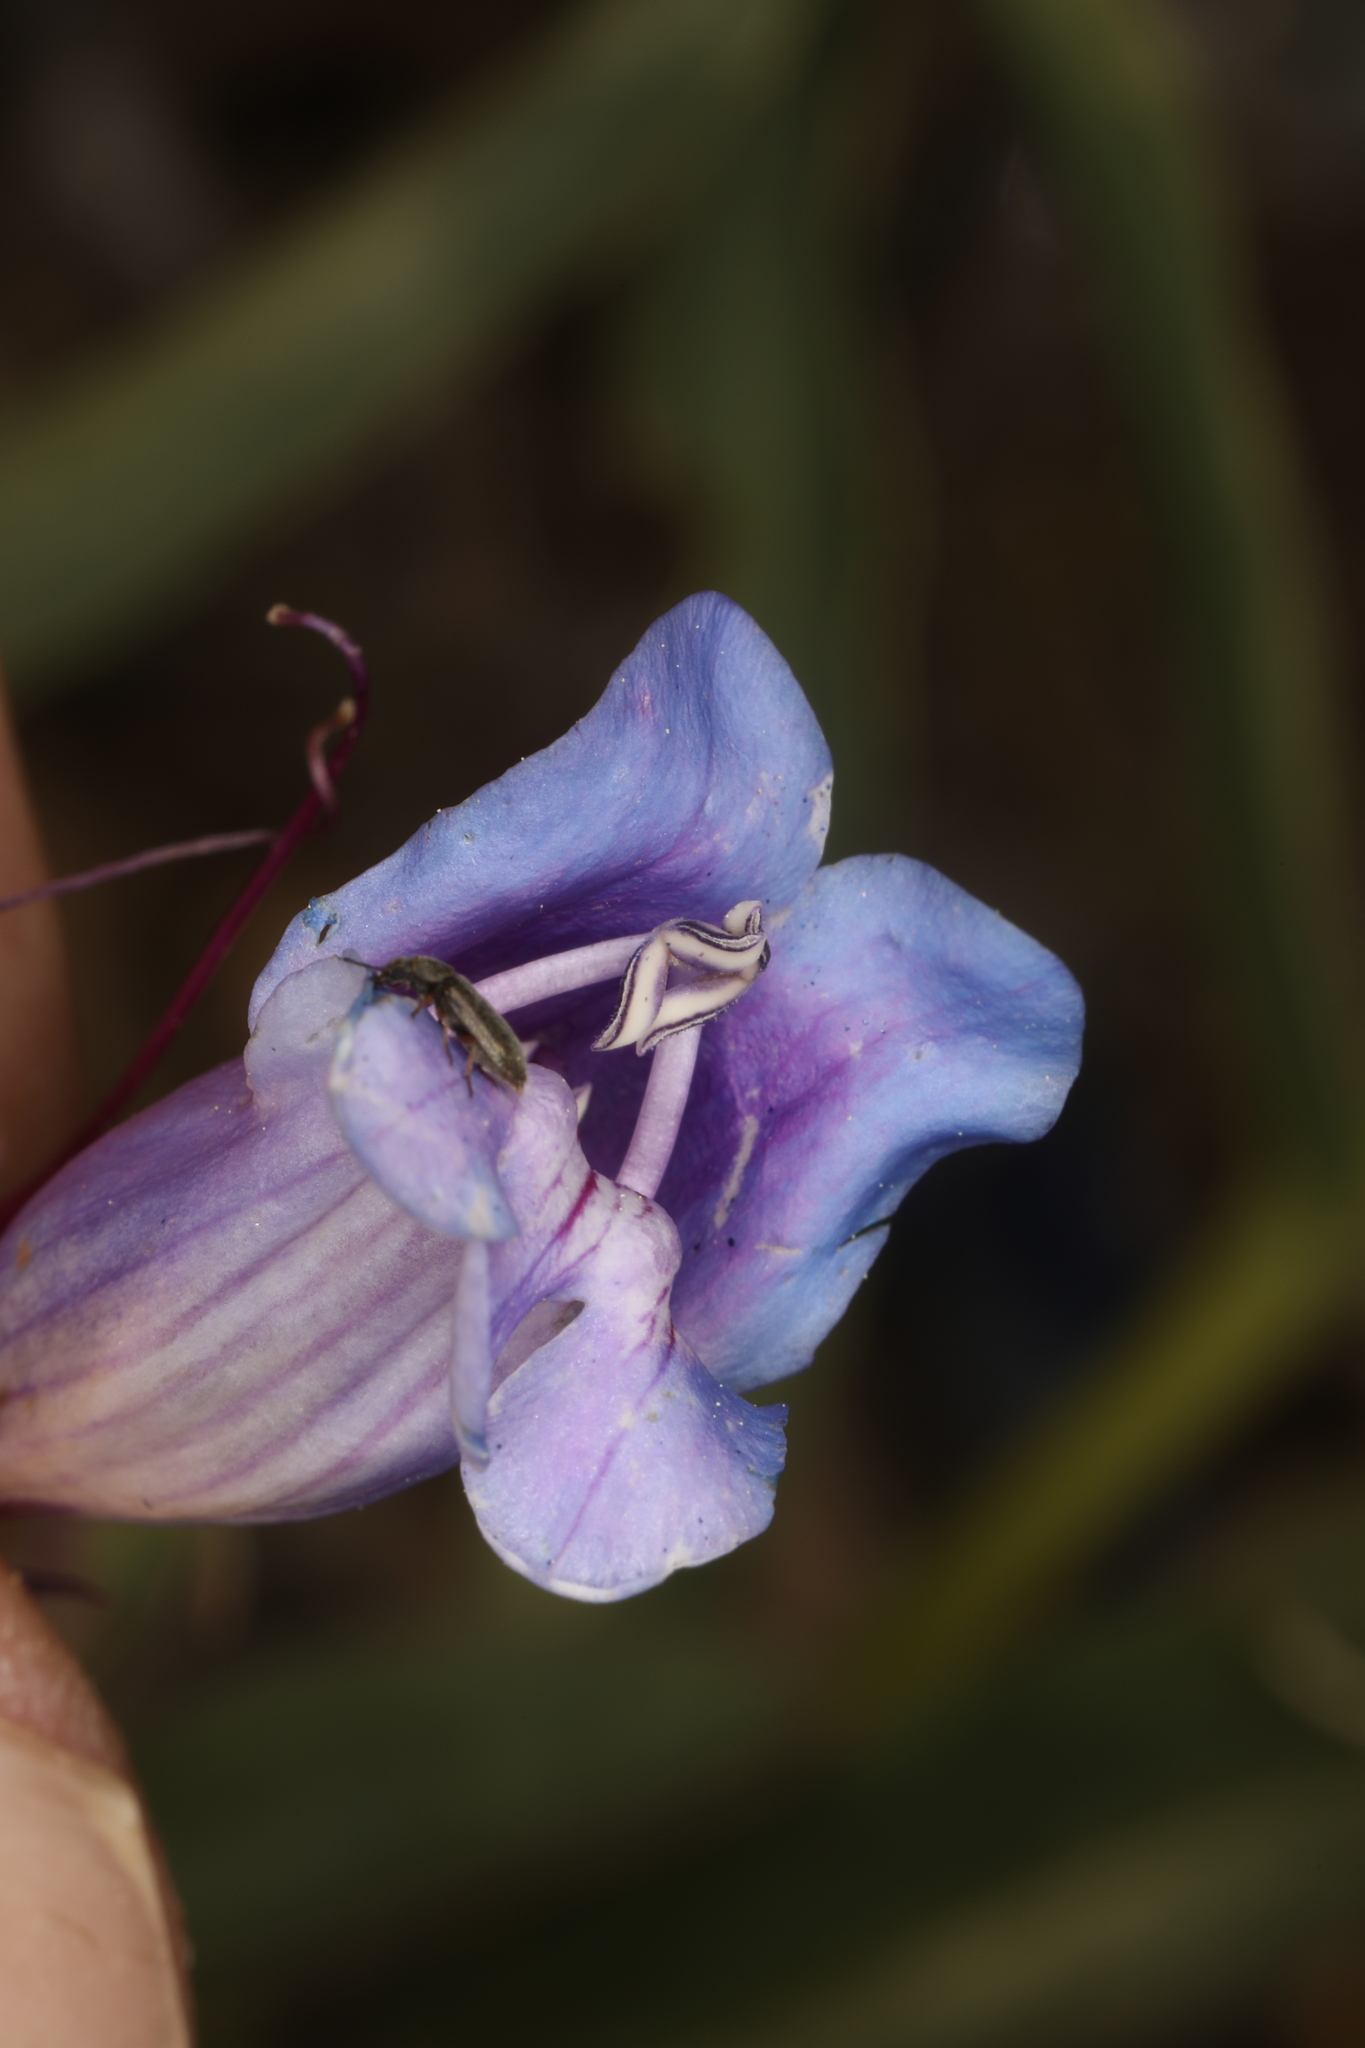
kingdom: Plantae
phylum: Tracheophyta
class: Magnoliopsida
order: Lamiales
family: Plantaginaceae
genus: Penstemon
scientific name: Penstemon speciosus
